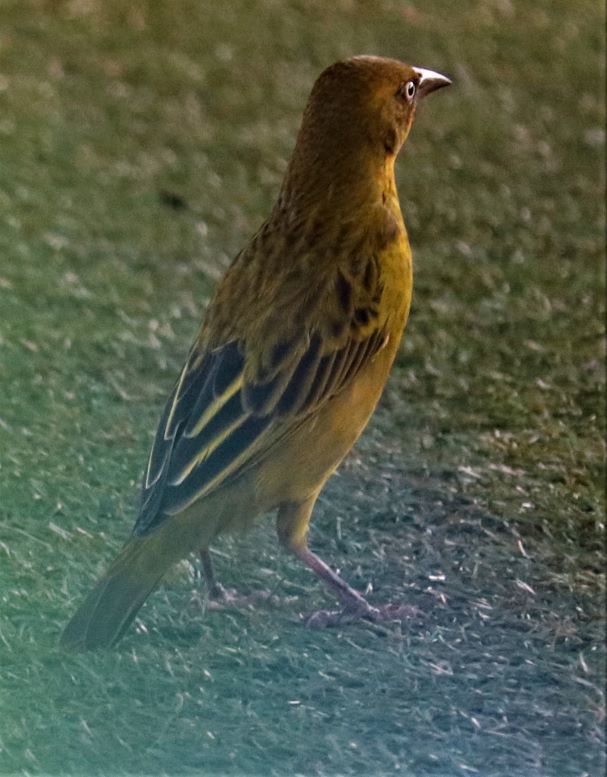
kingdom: Animalia
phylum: Chordata
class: Aves
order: Passeriformes
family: Ploceidae
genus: Ploceus
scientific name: Ploceus capensis
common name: Cape weaver
